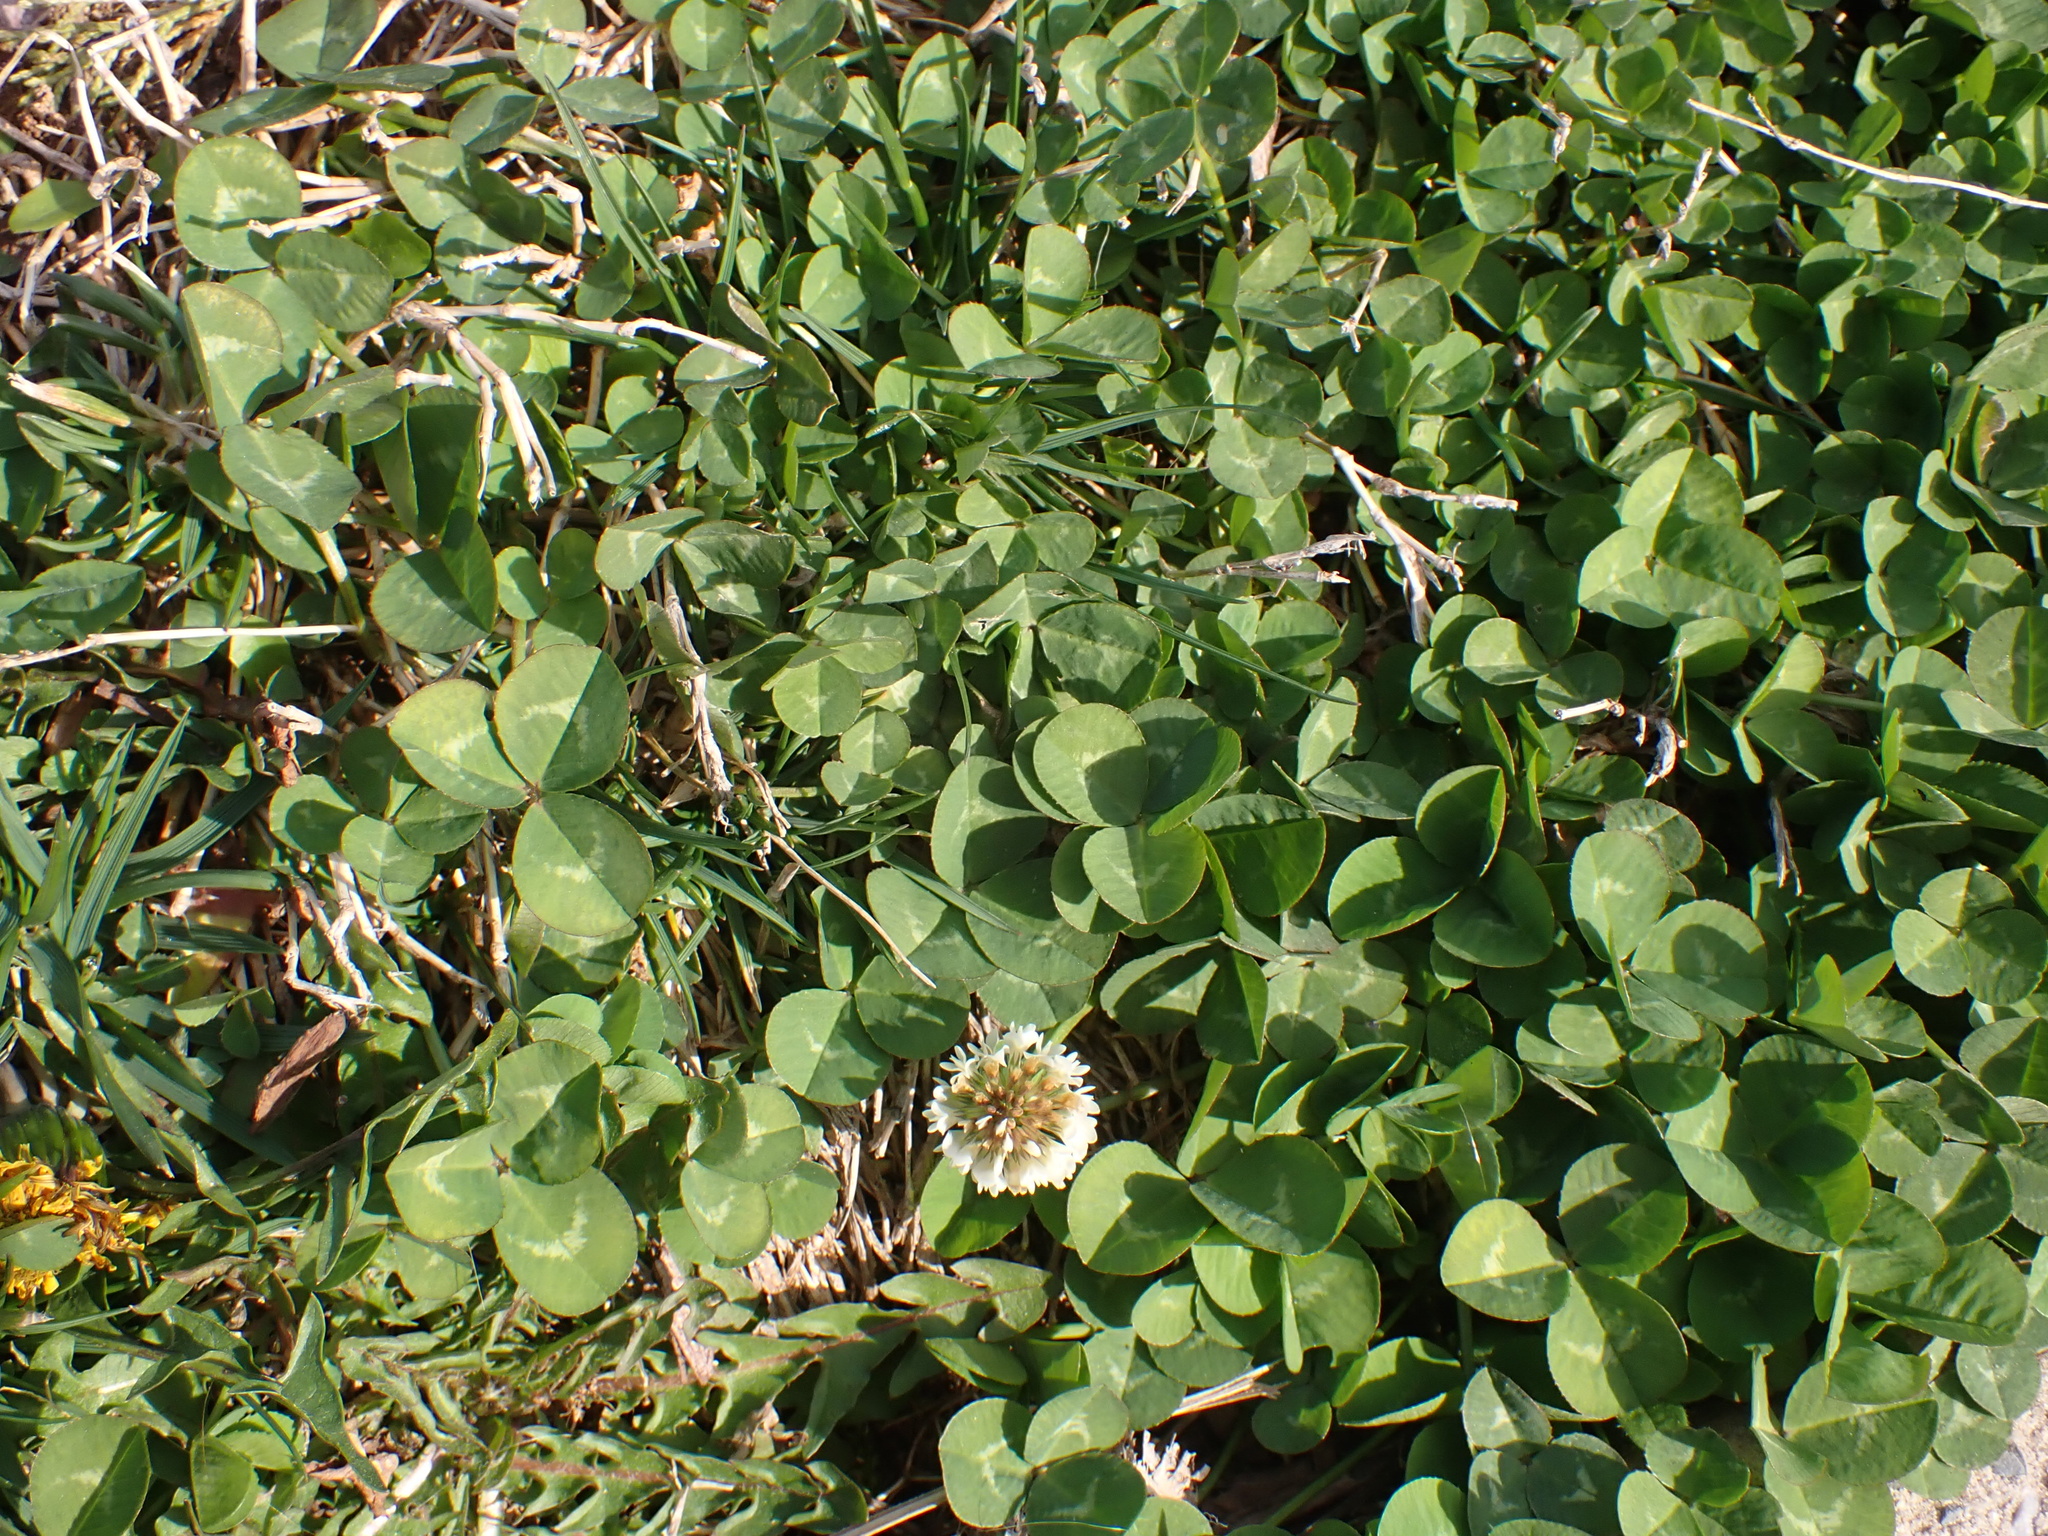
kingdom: Plantae
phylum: Tracheophyta
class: Magnoliopsida
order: Fabales
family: Fabaceae
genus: Trifolium
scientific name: Trifolium repens
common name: White clover
